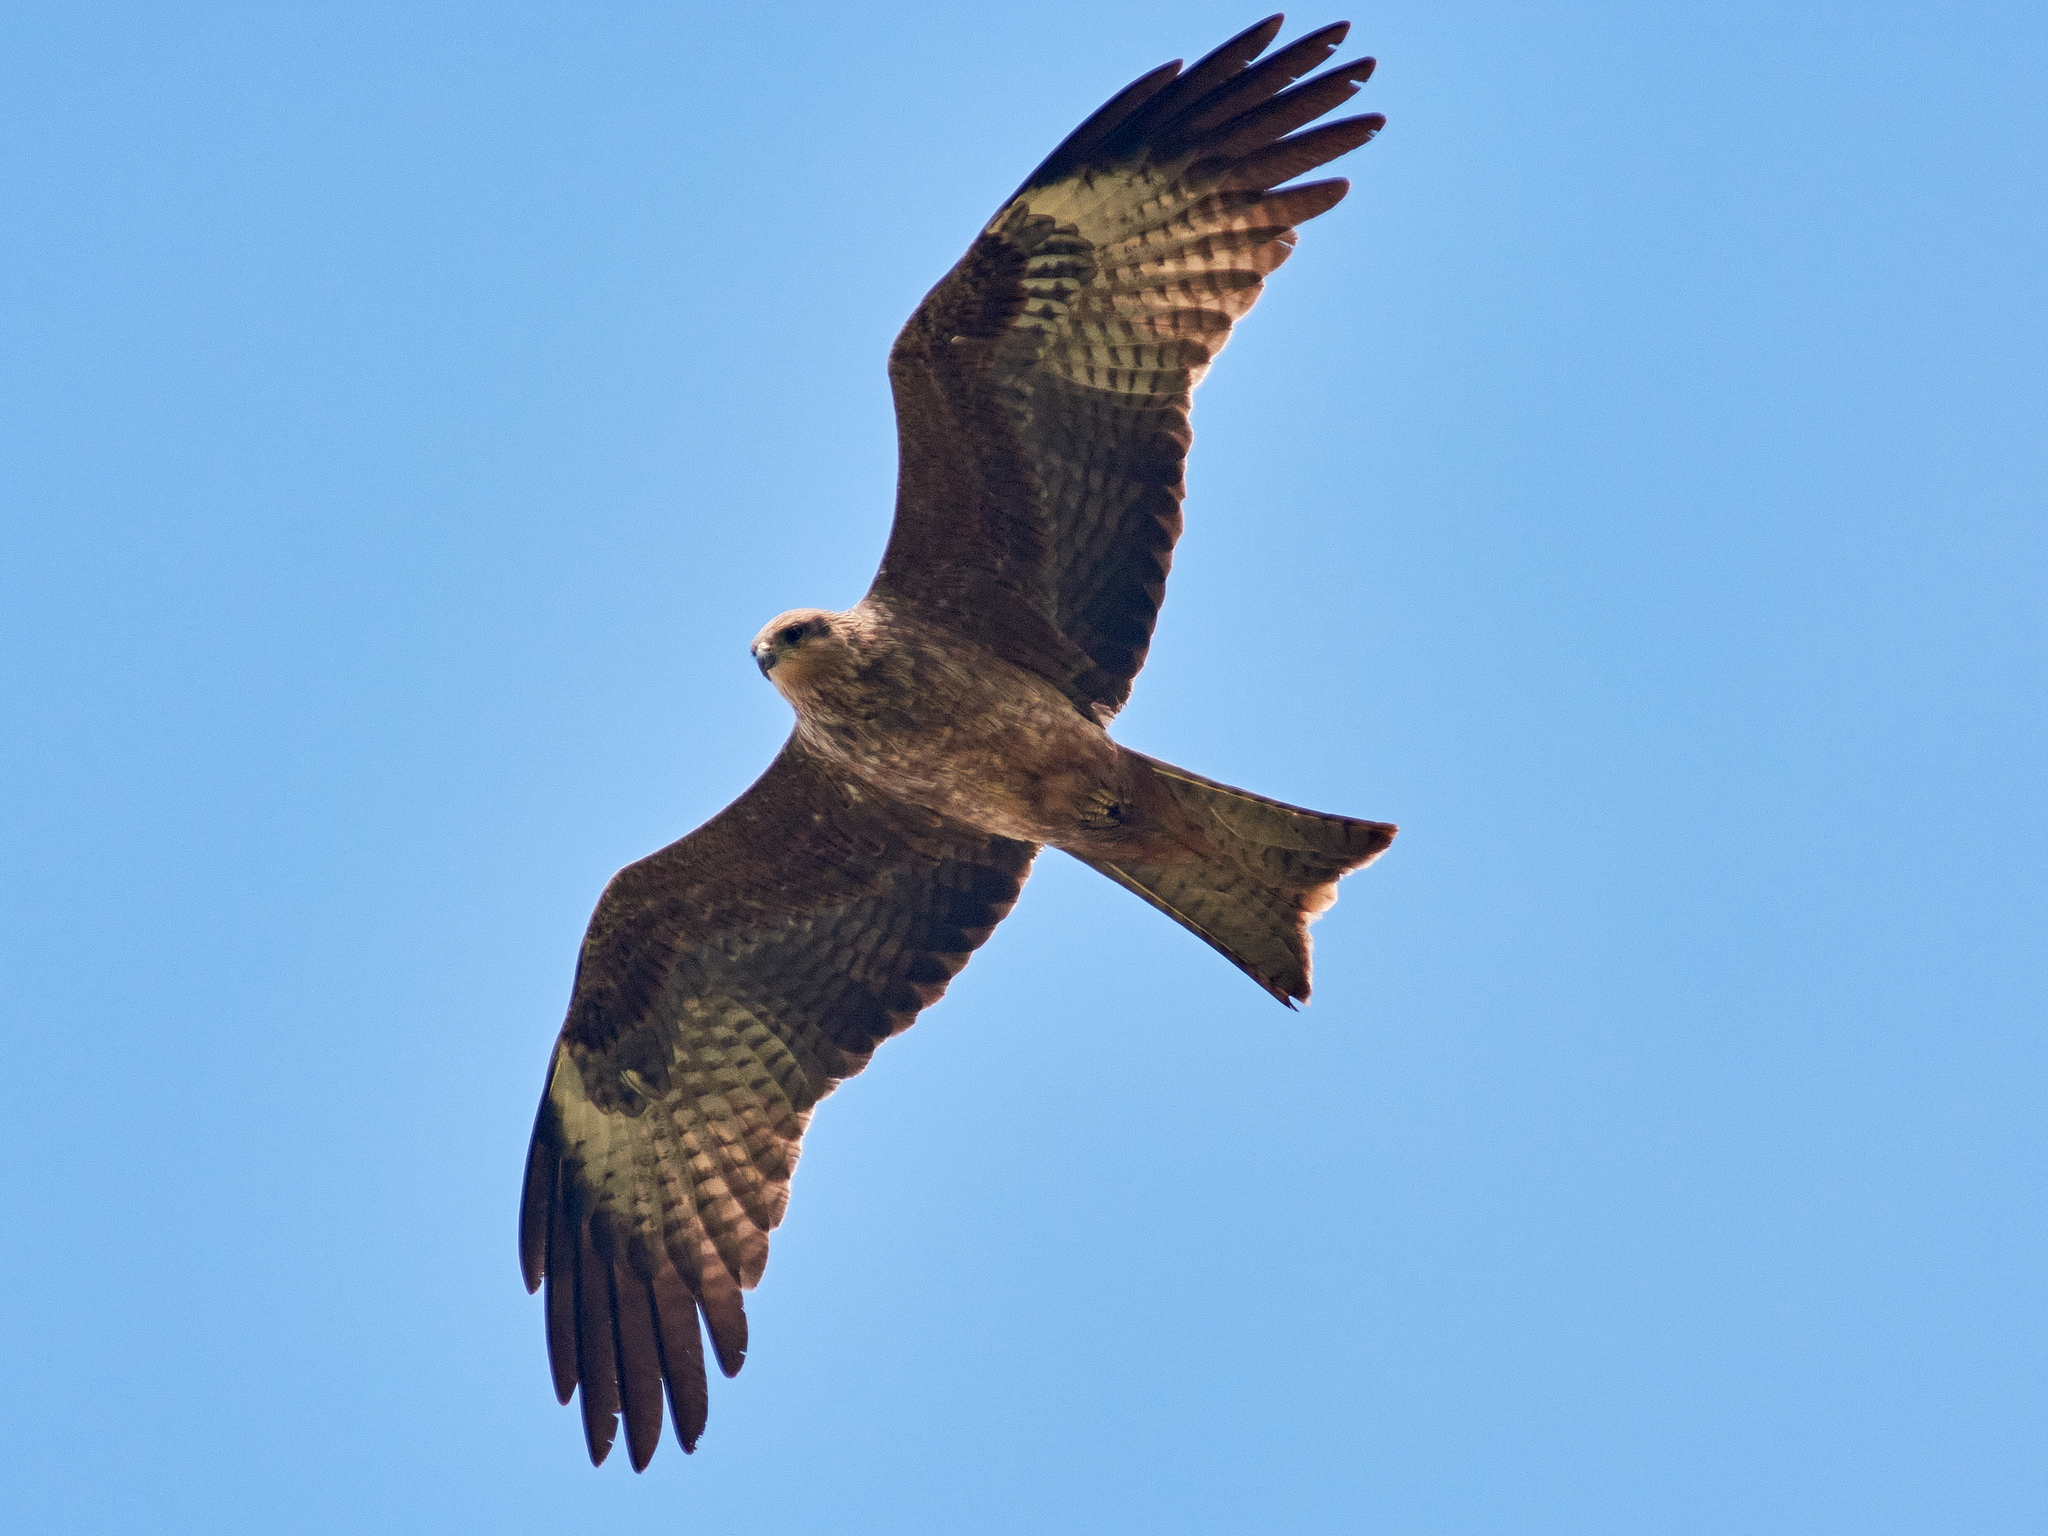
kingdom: Animalia
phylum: Chordata
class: Aves
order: Accipitriformes
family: Accipitridae
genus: Milvus
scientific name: Milvus migrans
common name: Black kite
